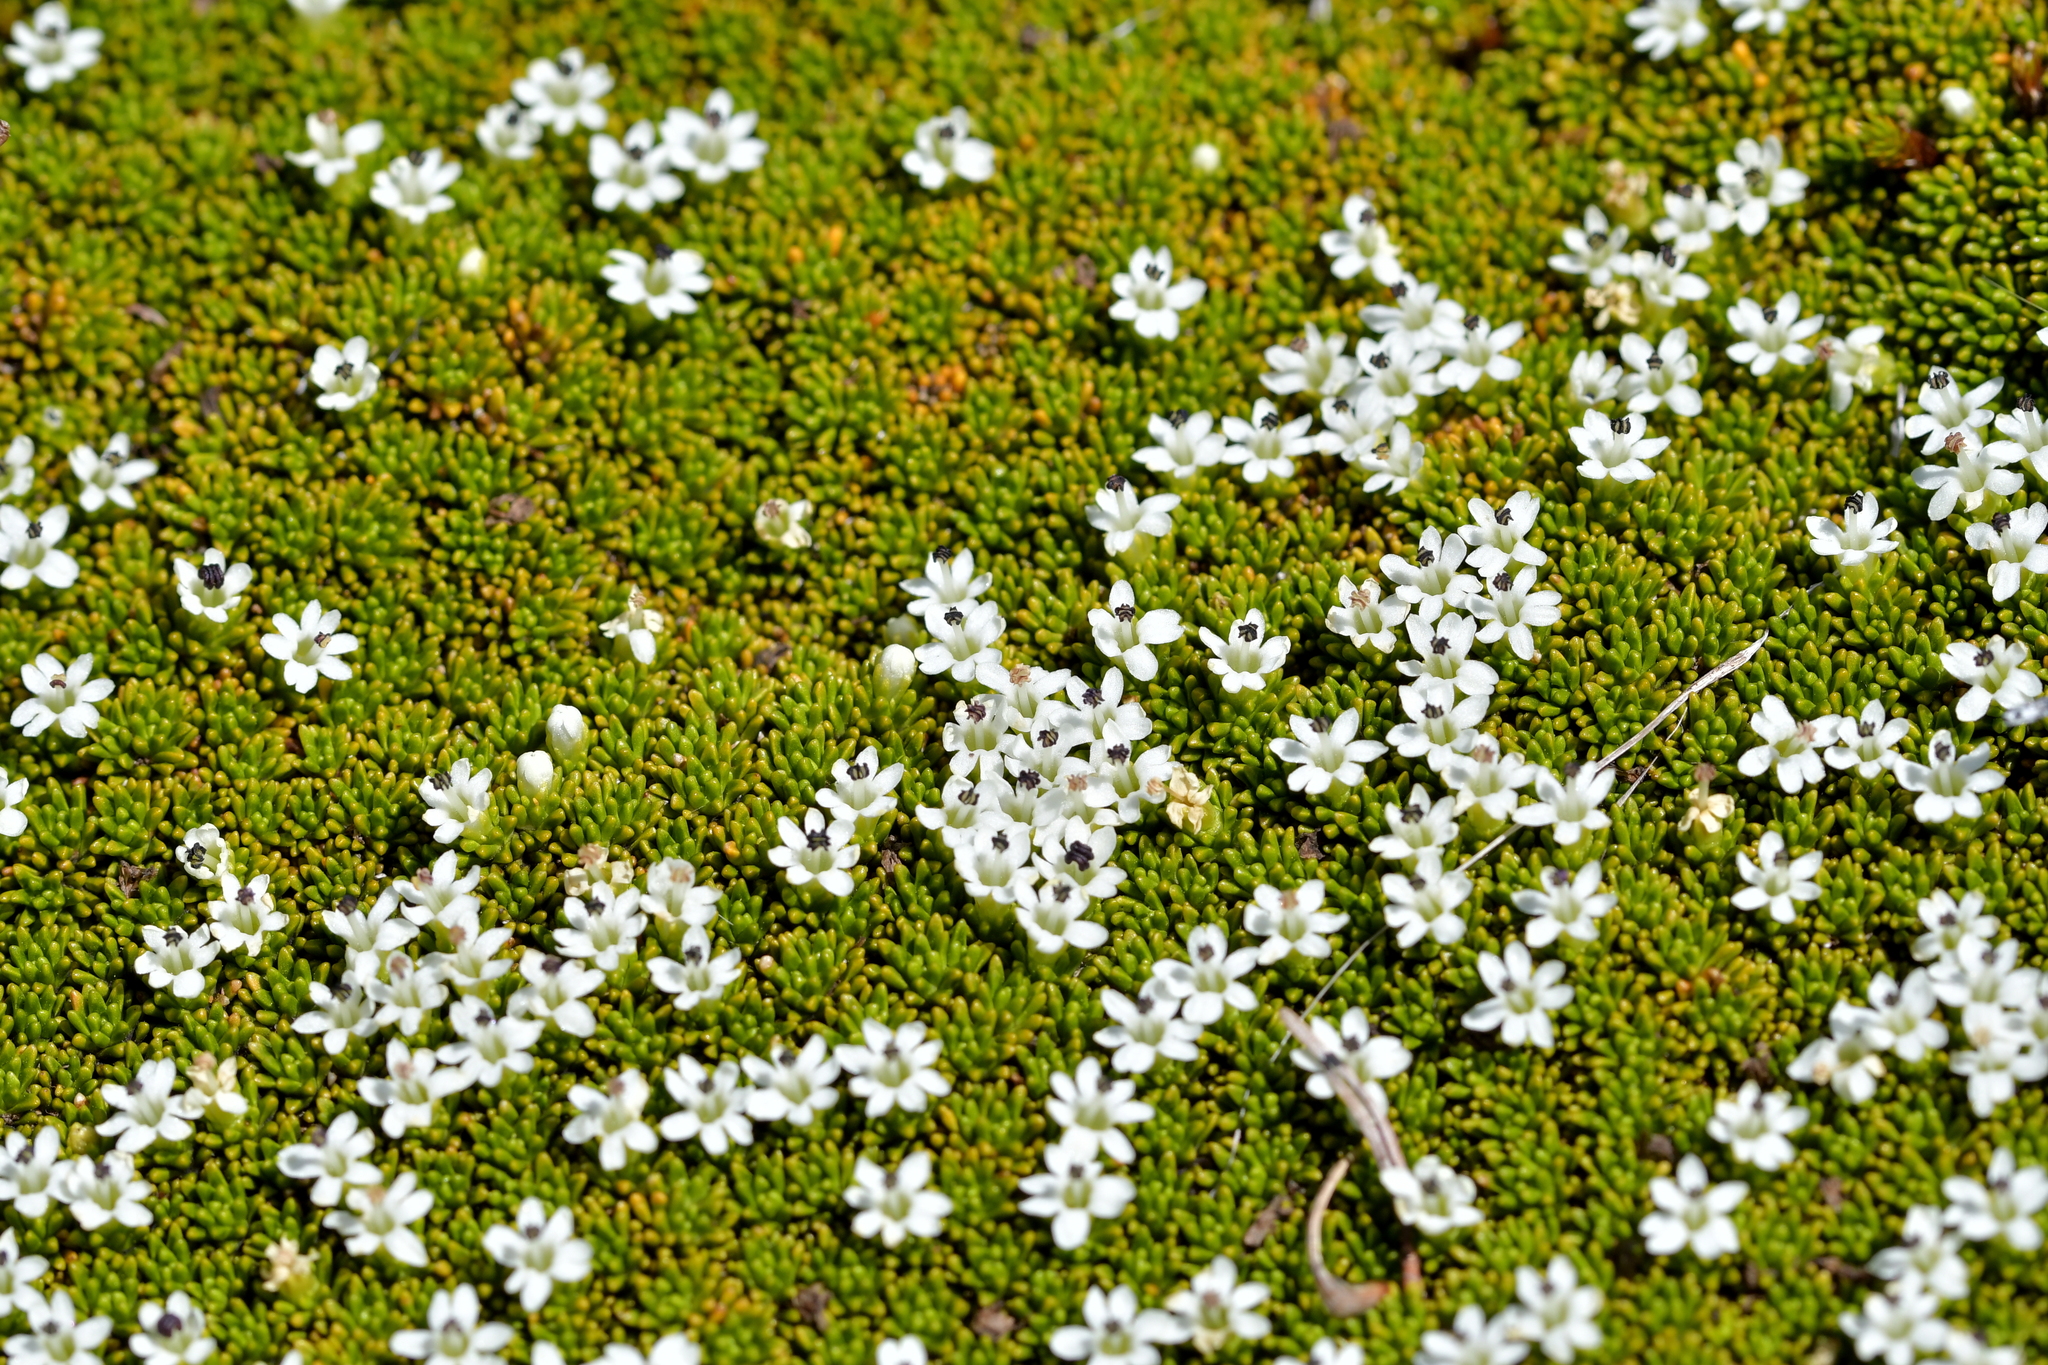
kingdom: Plantae
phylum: Tracheophyta
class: Magnoliopsida
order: Asterales
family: Stylidiaceae
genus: Phyllachne
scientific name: Phyllachne colensoi
